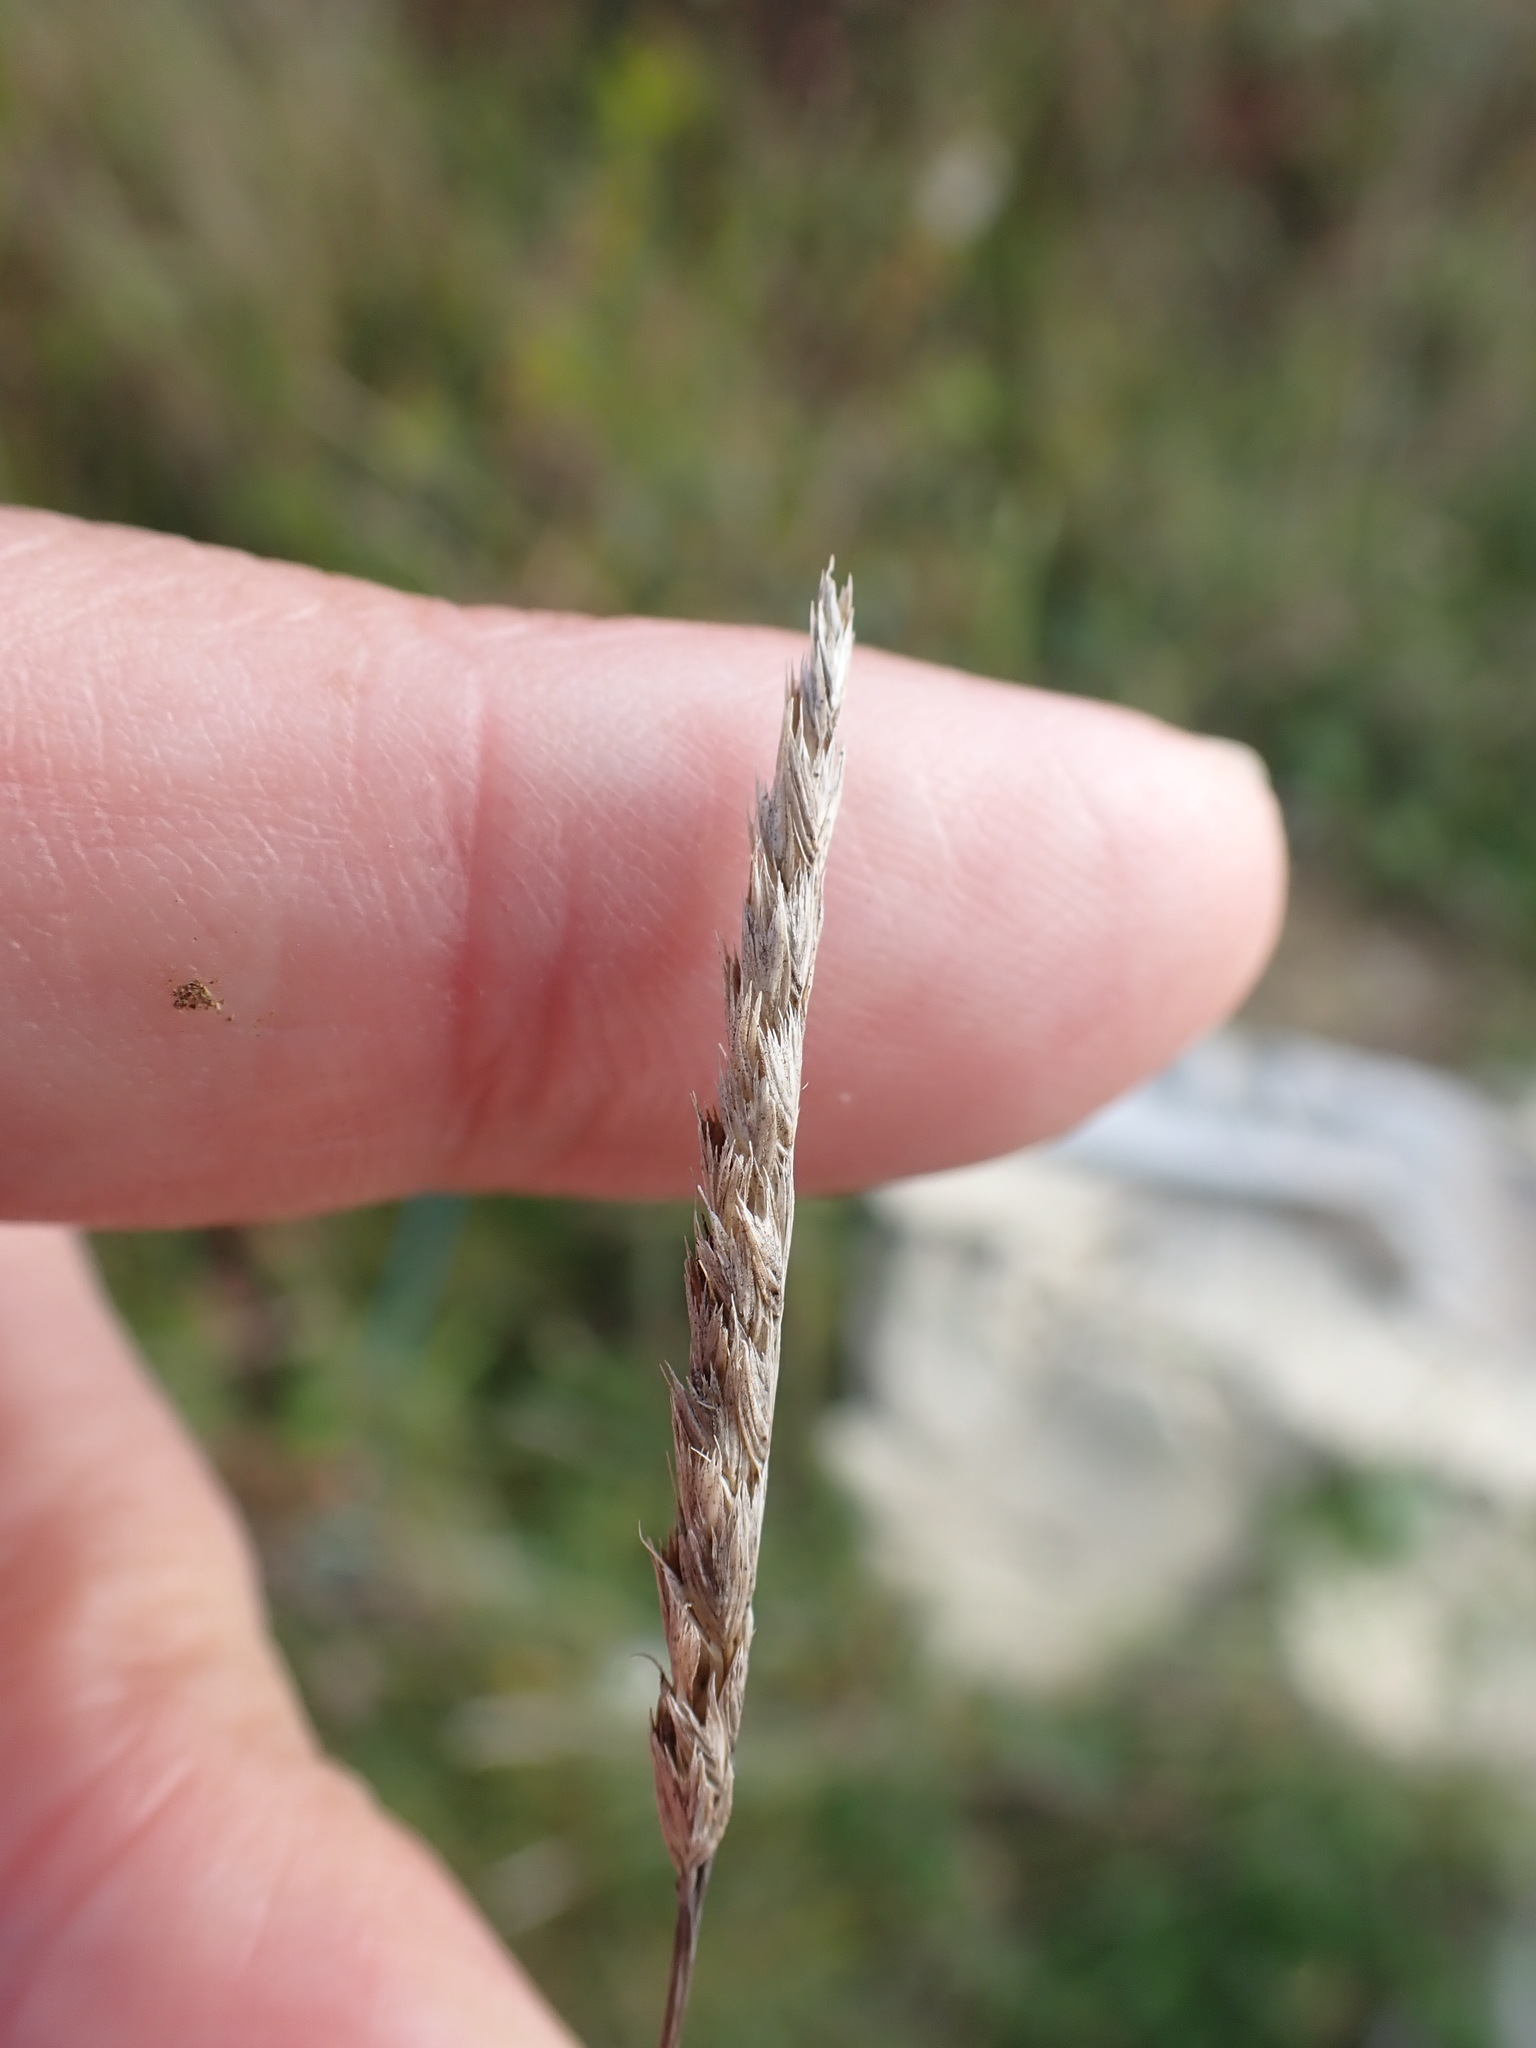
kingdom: Plantae
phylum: Tracheophyta
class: Liliopsida
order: Poales
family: Poaceae
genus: Cynosurus
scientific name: Cynosurus cristatus
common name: Crested dog's-tail
